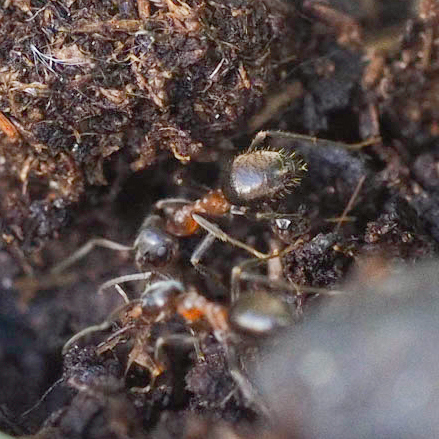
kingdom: Animalia
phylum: Arthropoda
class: Insecta
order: Hymenoptera
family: Formicidae
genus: Lasius
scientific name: Lasius emarginatus
